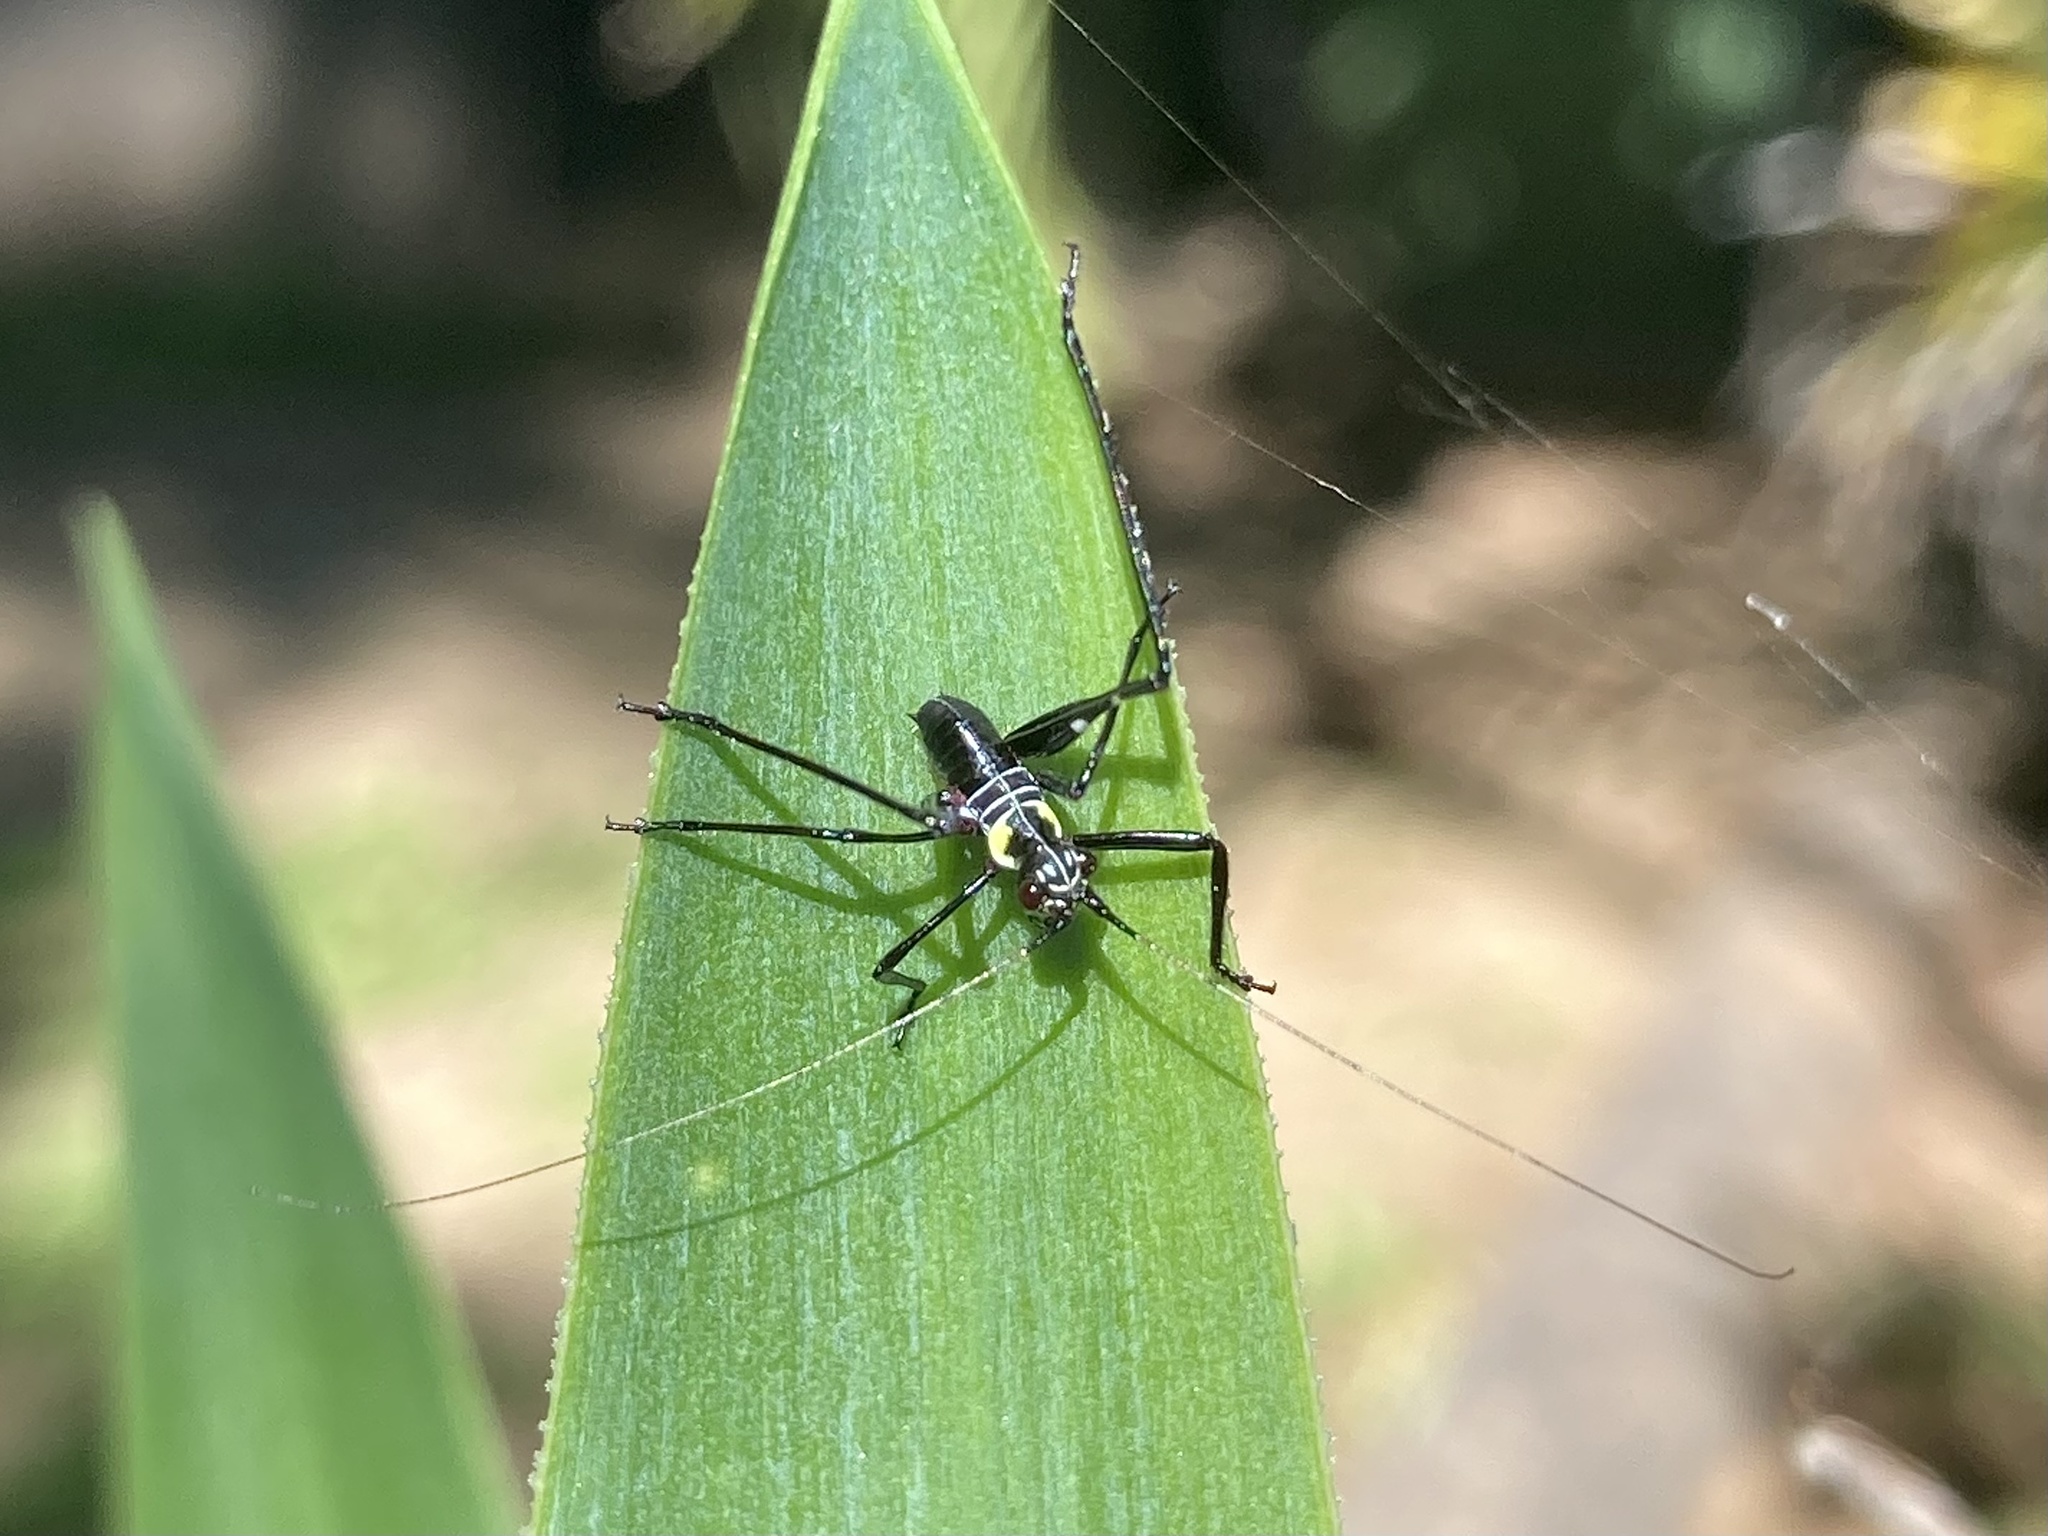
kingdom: Animalia
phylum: Arthropoda
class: Insecta
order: Orthoptera
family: Tettigoniidae
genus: Ephippitytha
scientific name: Ephippitytha trigintiduoguttata
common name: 32-spotted katydid
